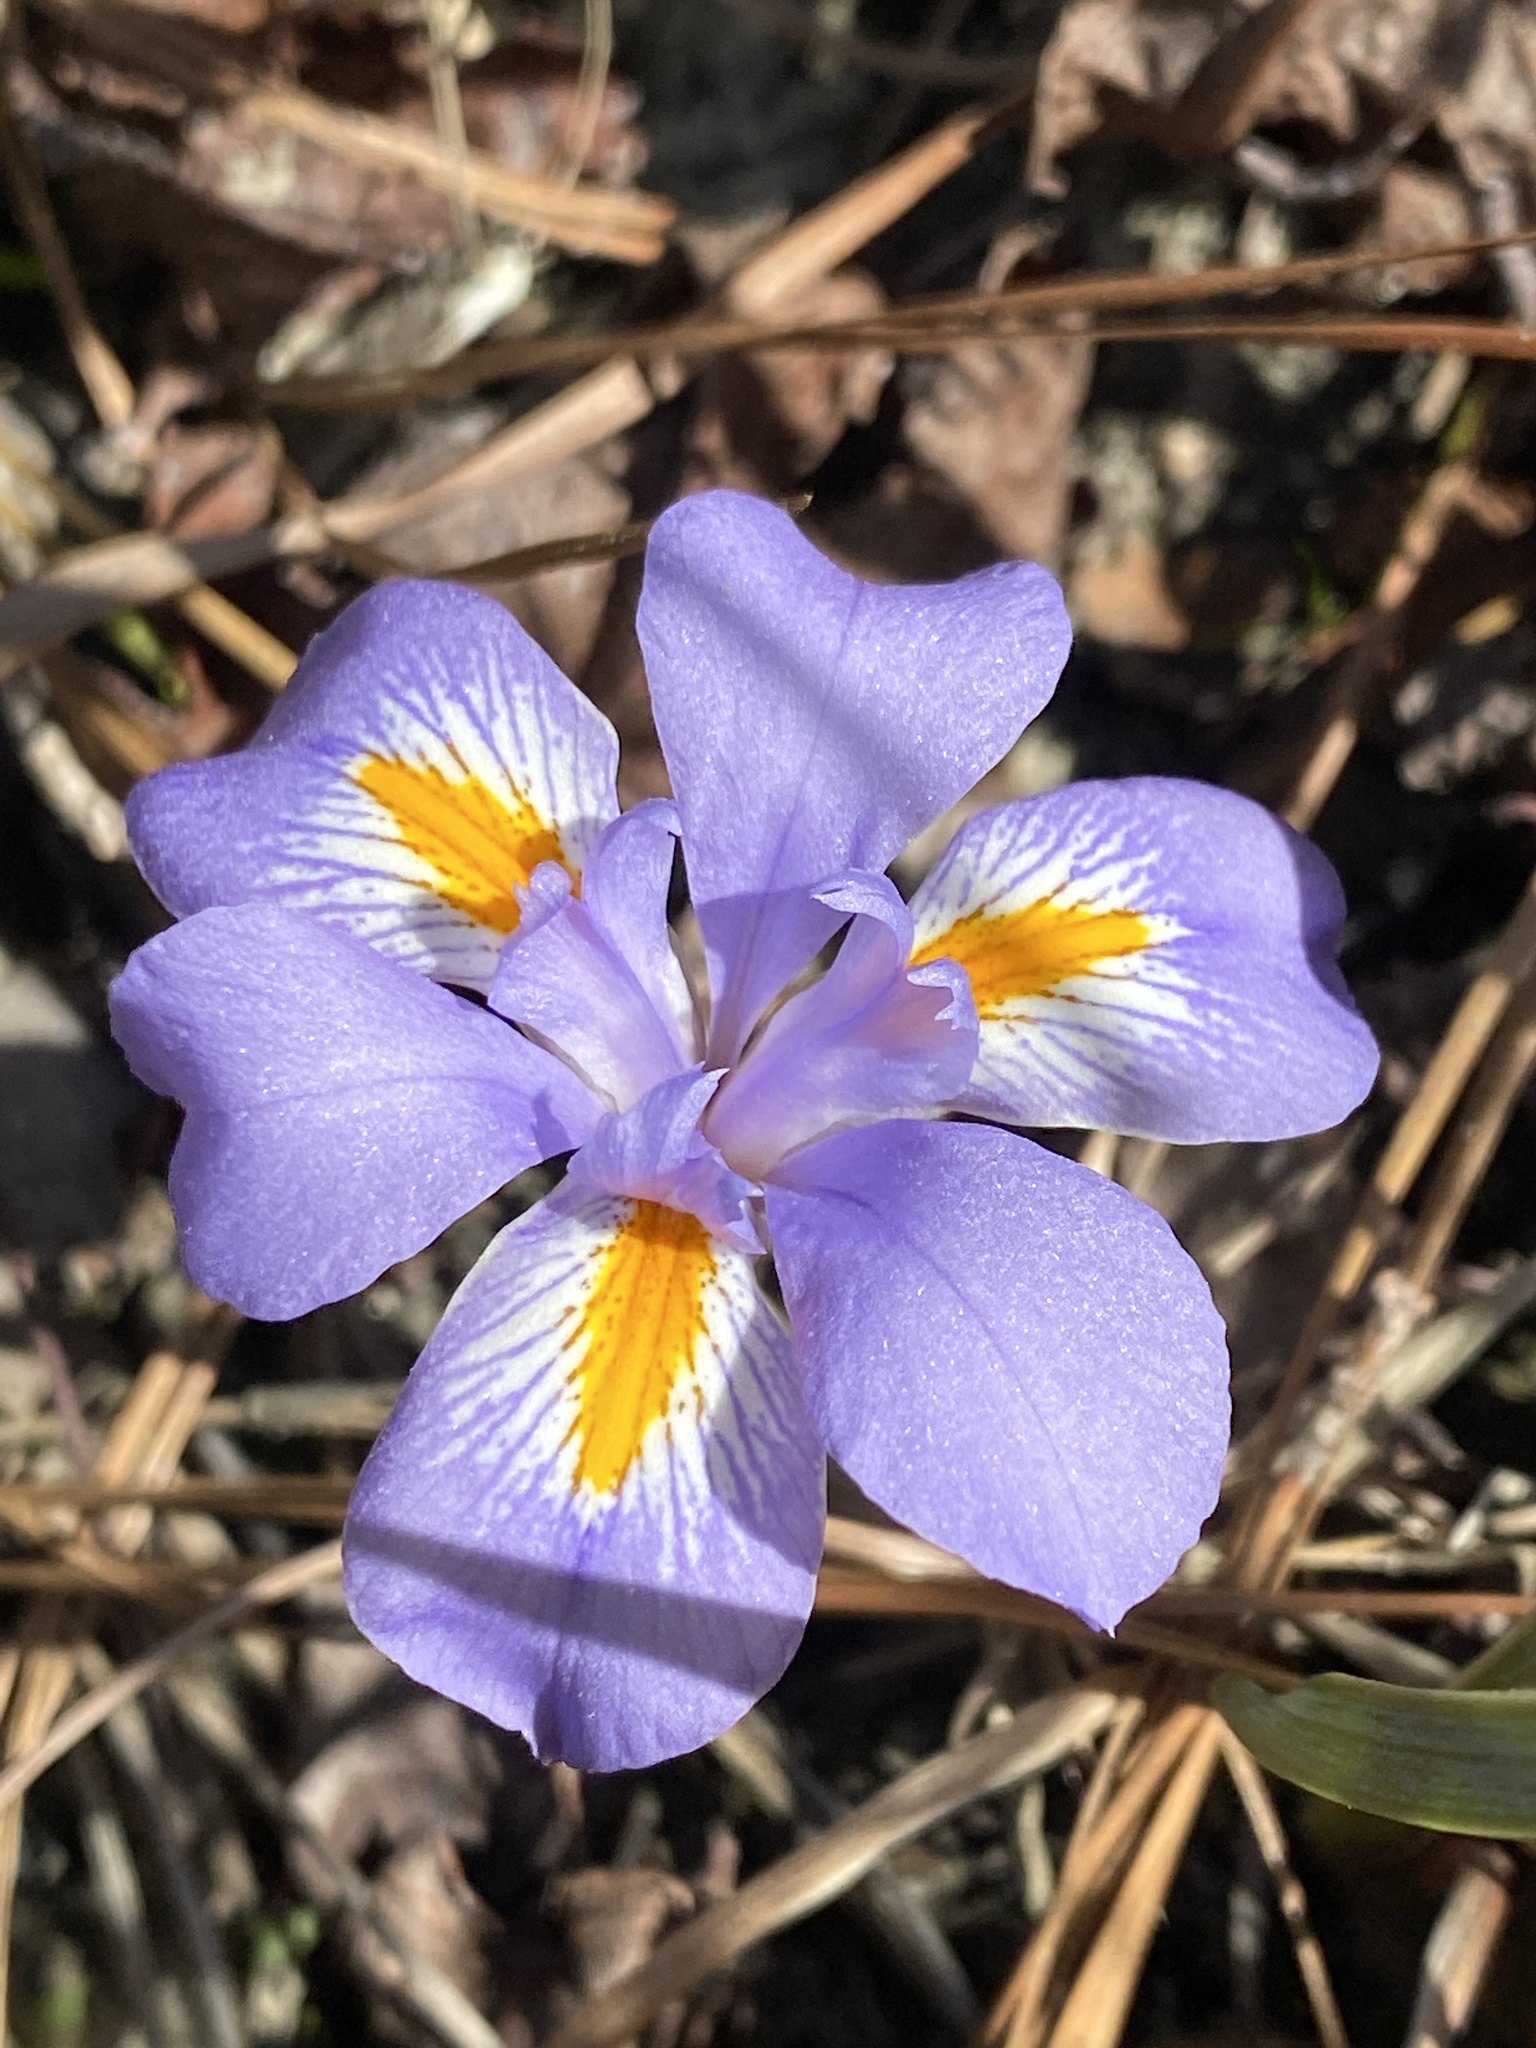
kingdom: Plantae
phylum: Tracheophyta
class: Liliopsida
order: Asparagales
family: Iridaceae
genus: Iris
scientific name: Iris verna
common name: Dwarf iris
